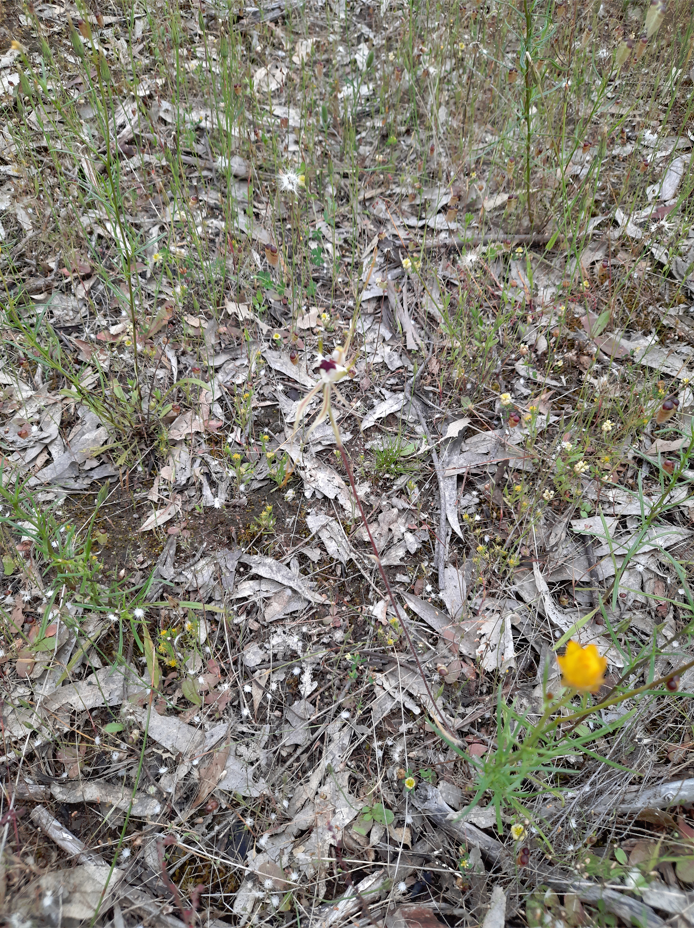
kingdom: Plantae
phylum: Tracheophyta
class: Liliopsida
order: Asparagales
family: Orchidaceae
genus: Caladenia
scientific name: Caladenia tentaculata
